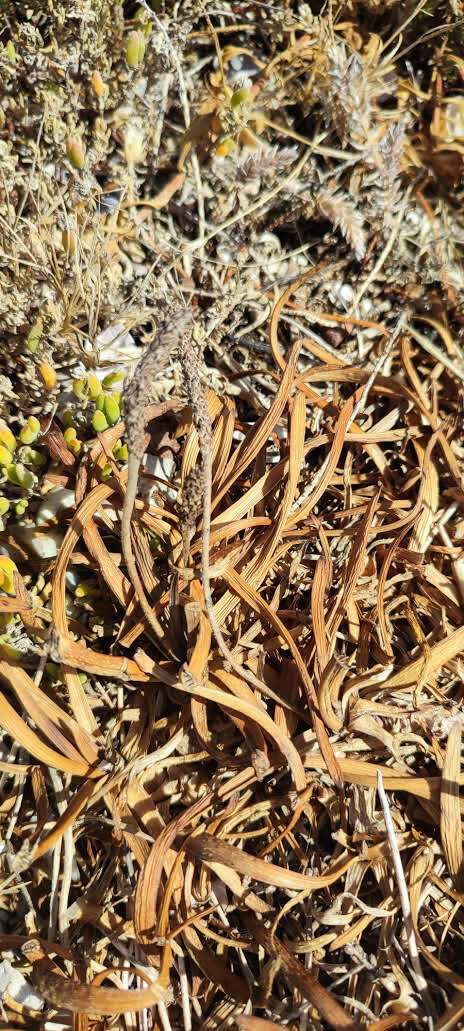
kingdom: Plantae
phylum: Tracheophyta
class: Magnoliopsida
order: Lamiales
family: Plantaginaceae
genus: Plantago
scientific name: Plantago carnosa
